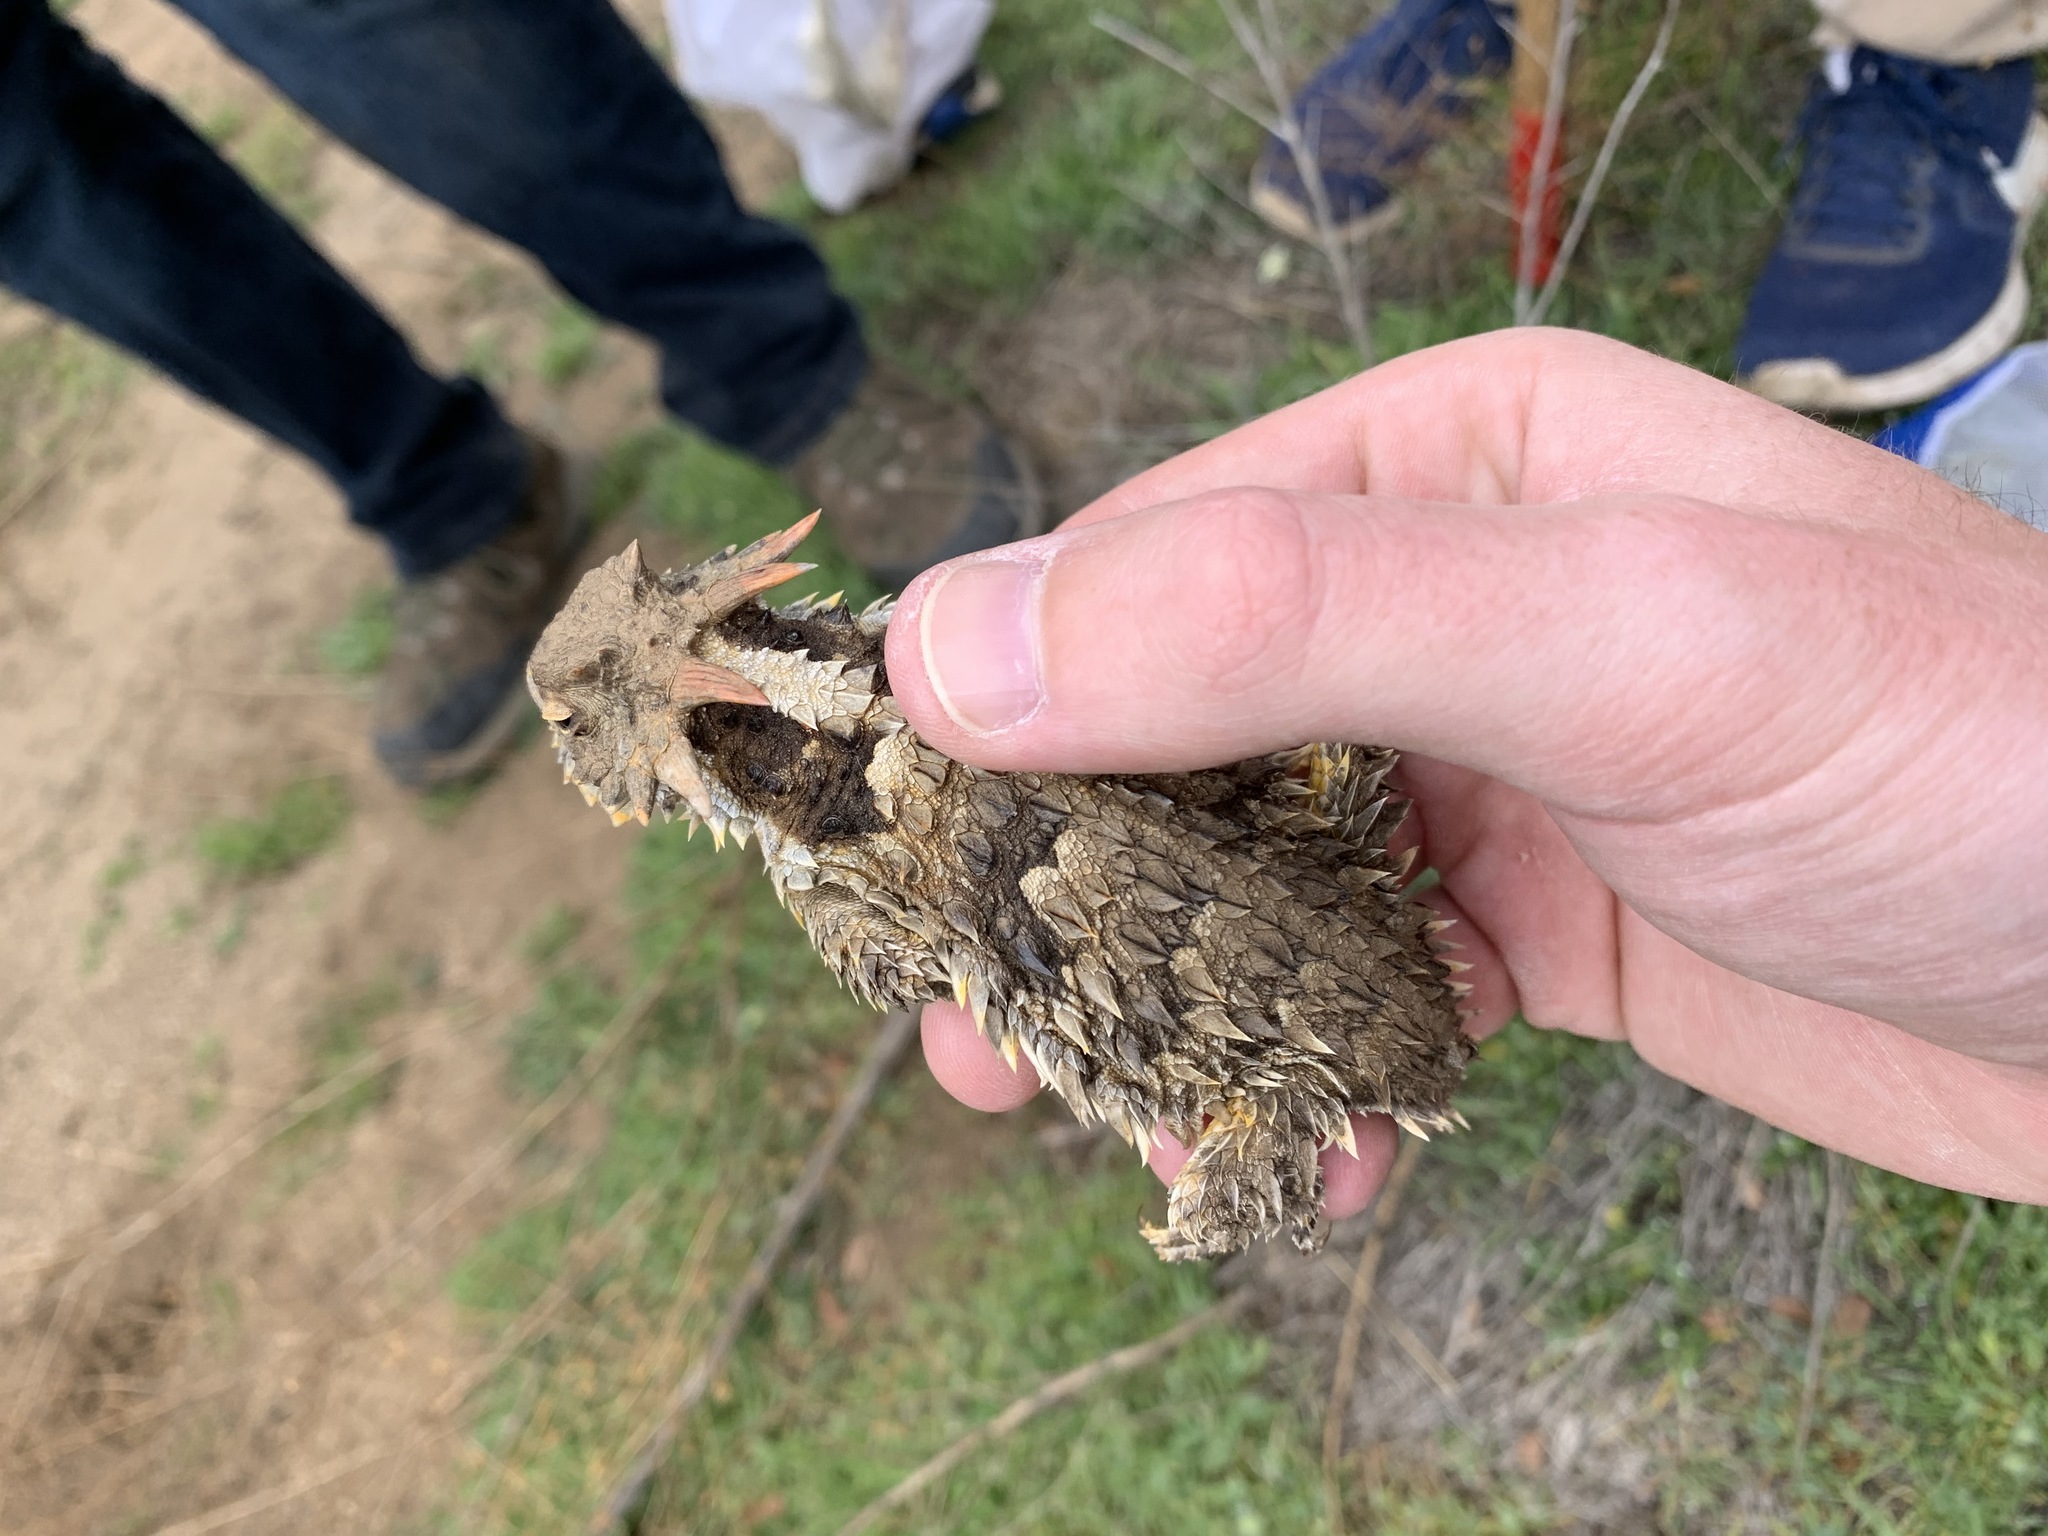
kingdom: Animalia
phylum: Chordata
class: Squamata
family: Phrynosomatidae
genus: Phrynosoma
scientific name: Phrynosoma blainvillii
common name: San diego horned lizard
